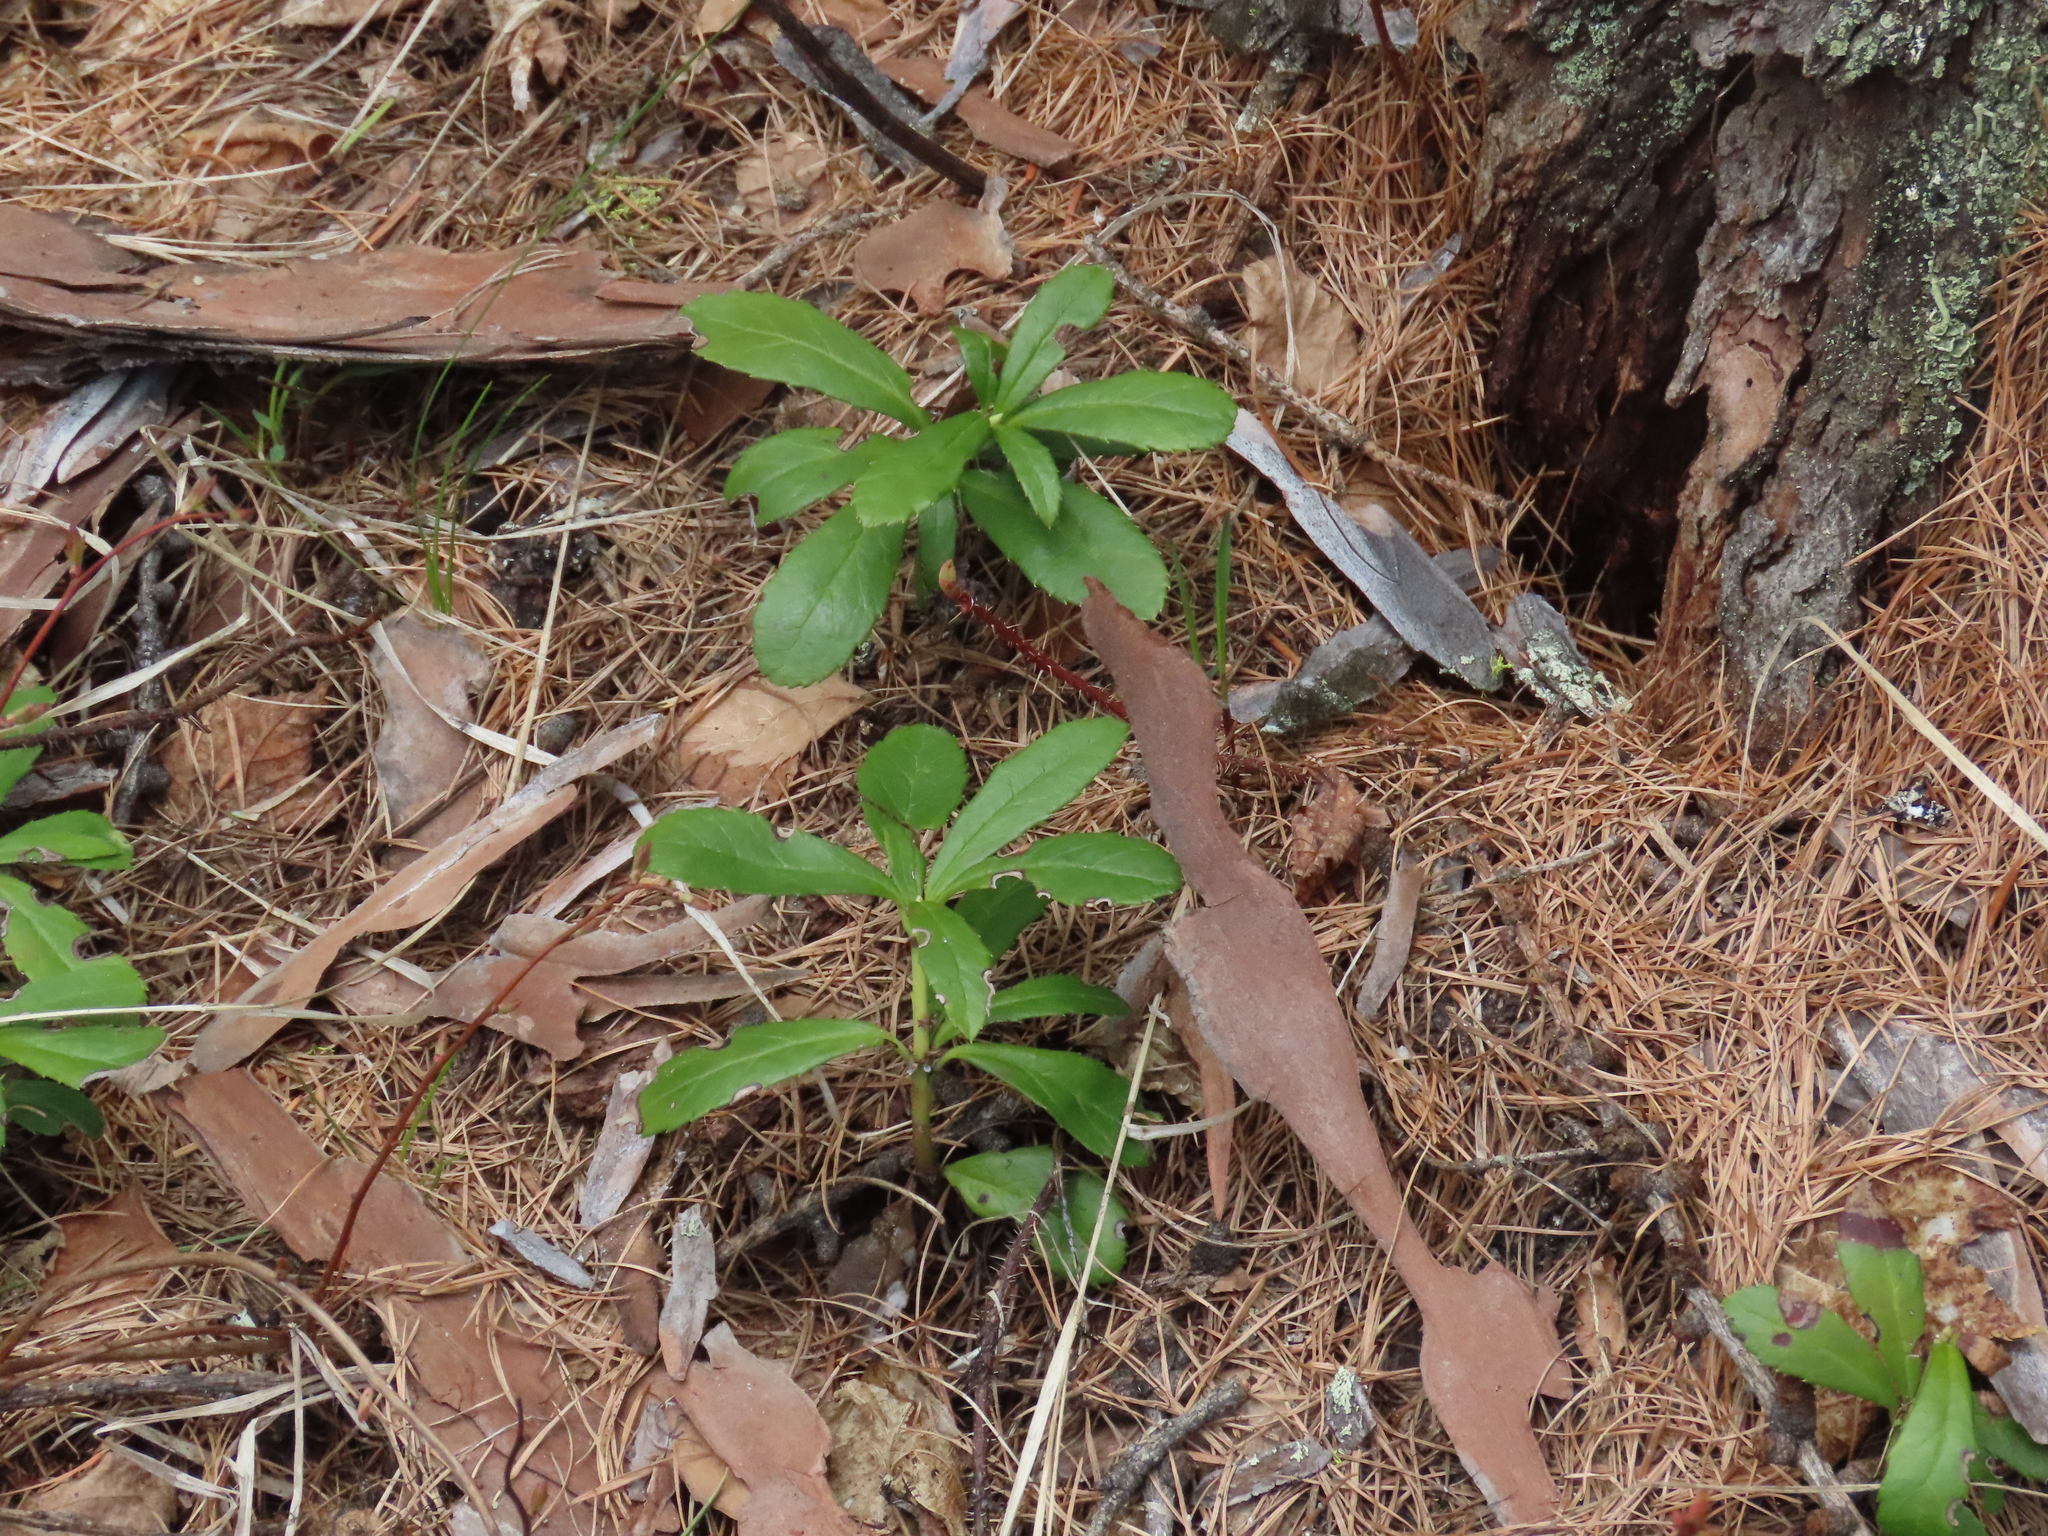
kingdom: Plantae
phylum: Tracheophyta
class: Magnoliopsida
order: Ericales
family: Ericaceae
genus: Chimaphila
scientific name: Chimaphila umbellata
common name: Pipsissewa
